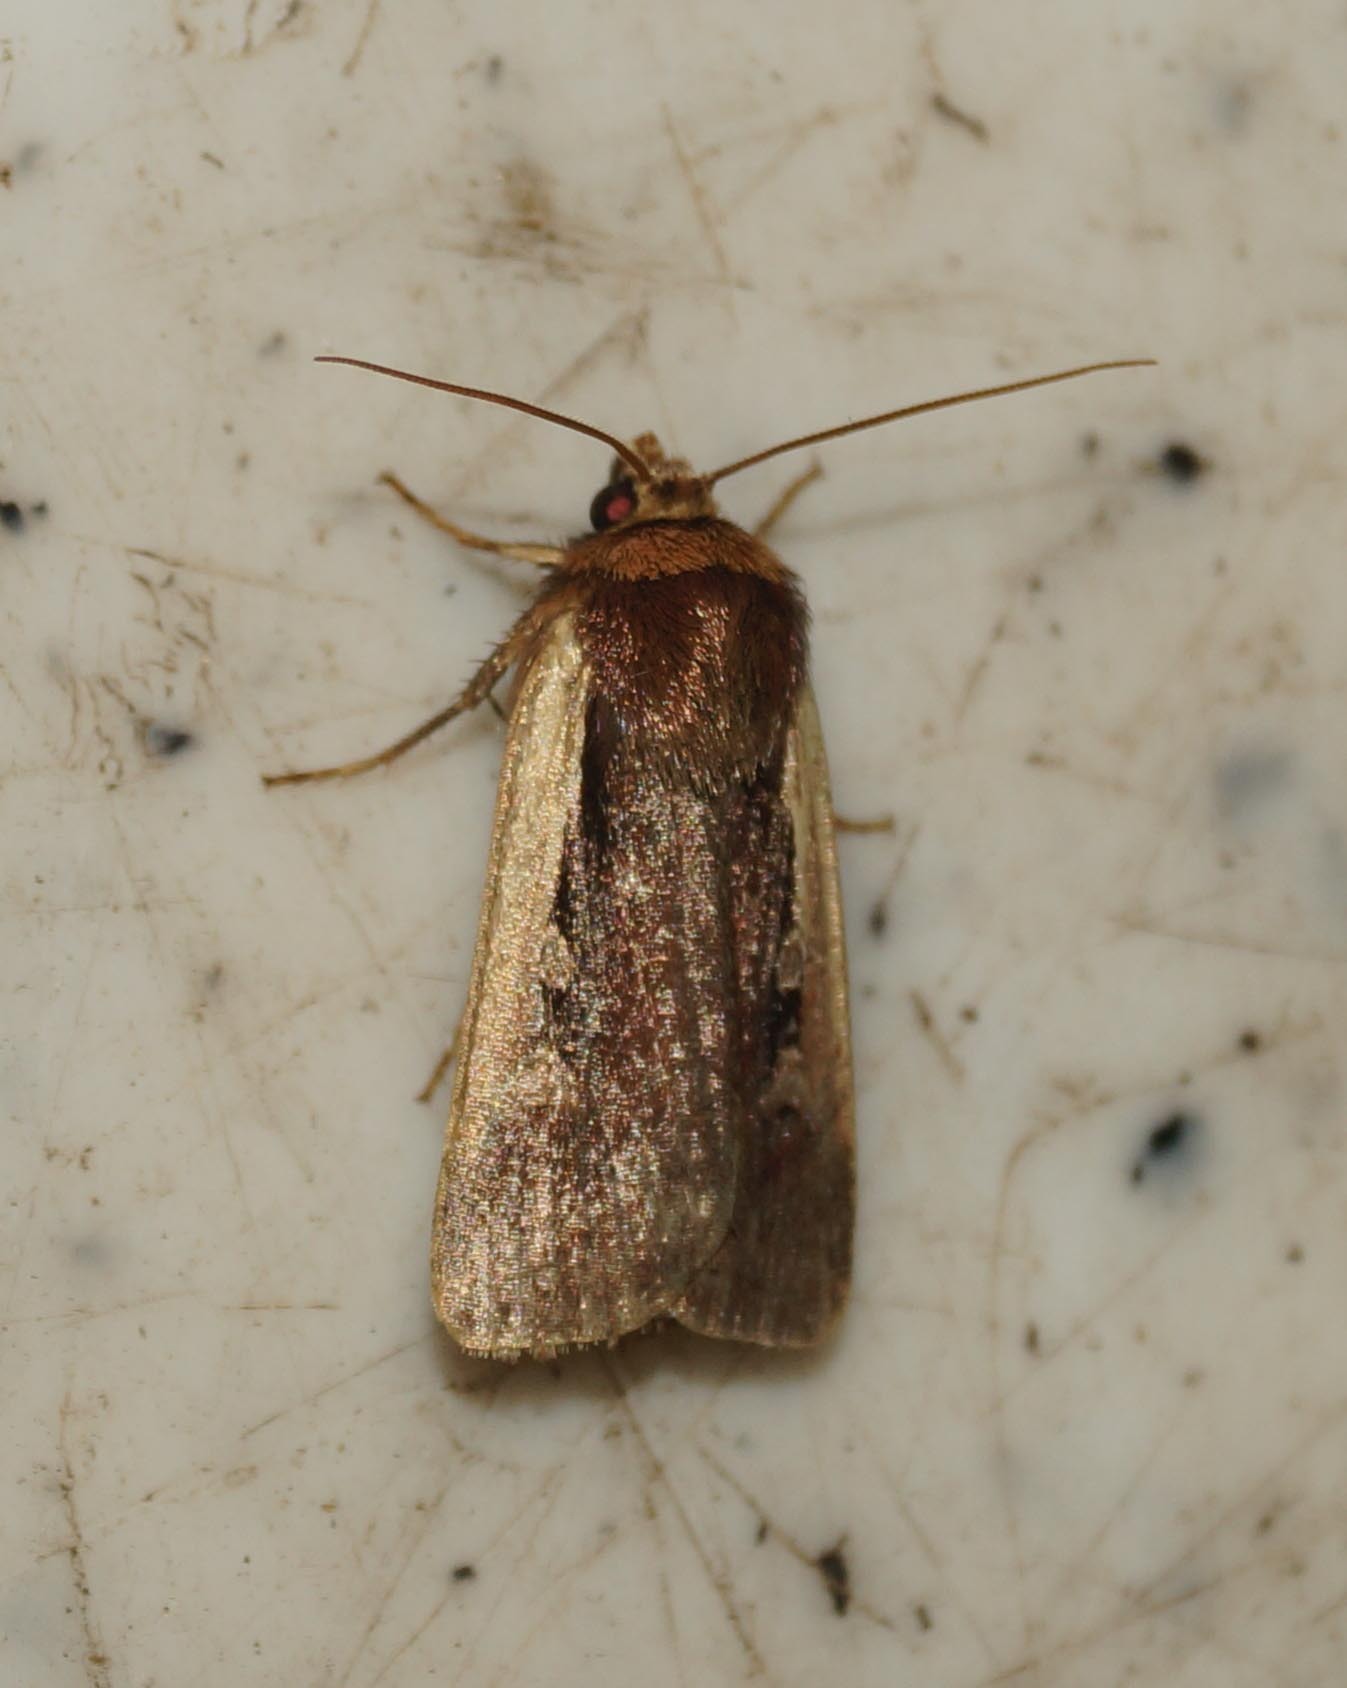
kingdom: Animalia
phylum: Arthropoda
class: Insecta
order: Lepidoptera
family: Noctuidae
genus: Ochropleura
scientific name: Ochropleura plecta
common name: Flame shoulder
